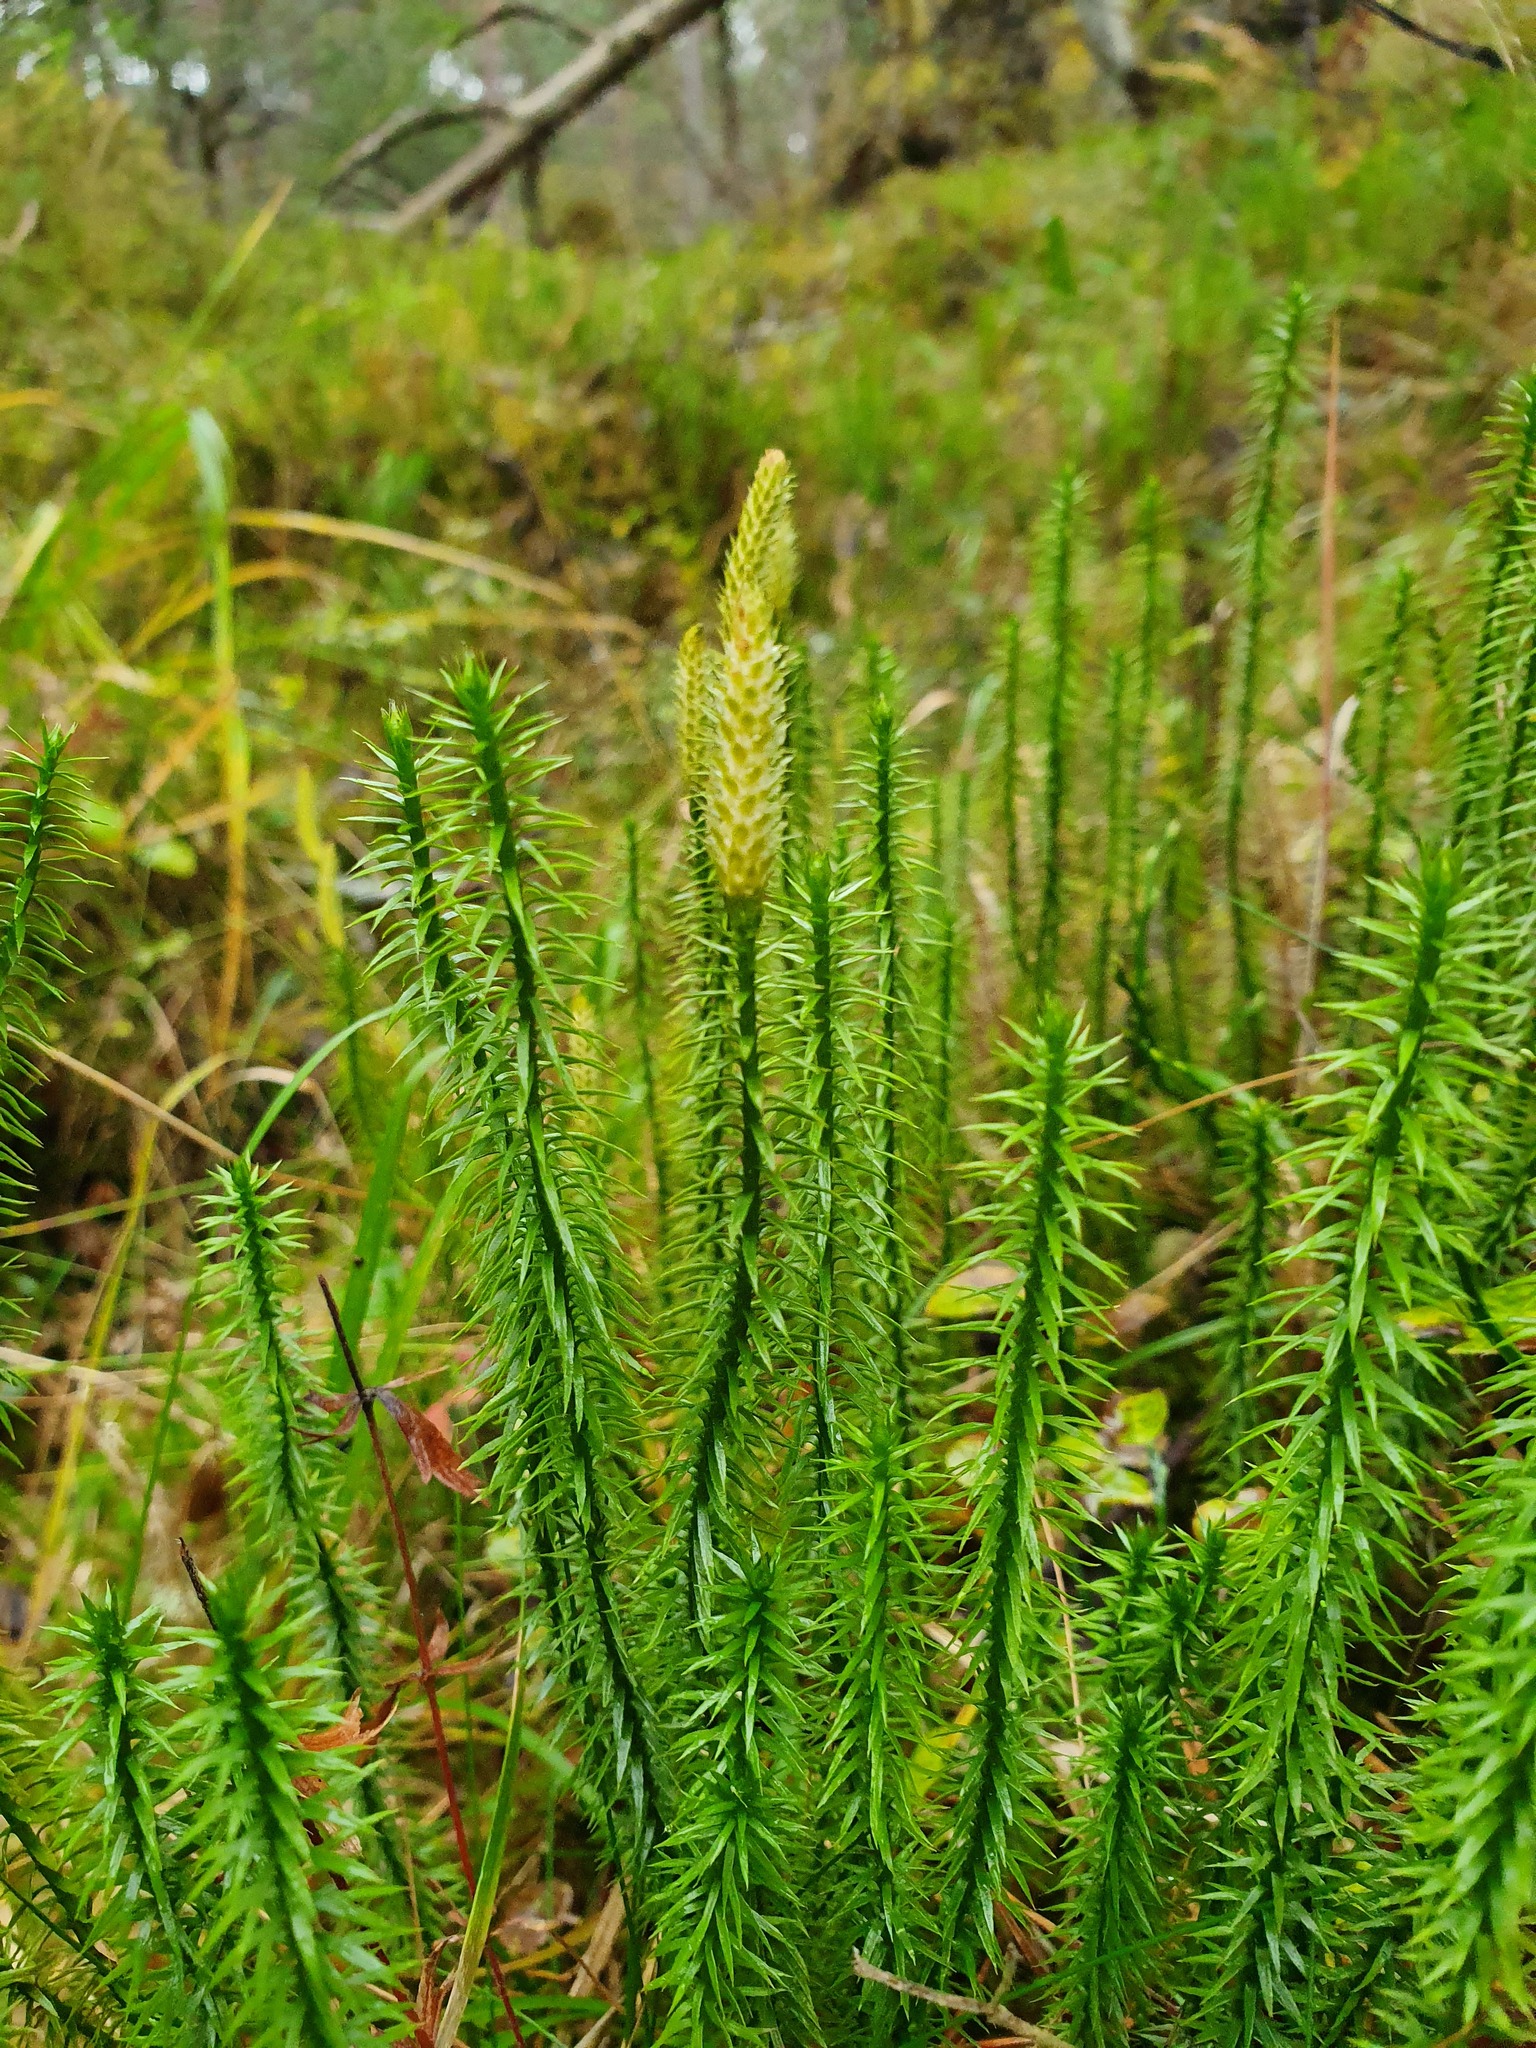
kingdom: Plantae
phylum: Tracheophyta
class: Lycopodiopsida
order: Lycopodiales
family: Lycopodiaceae
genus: Spinulum
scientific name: Spinulum annotinum
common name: Interrupted club-moss
